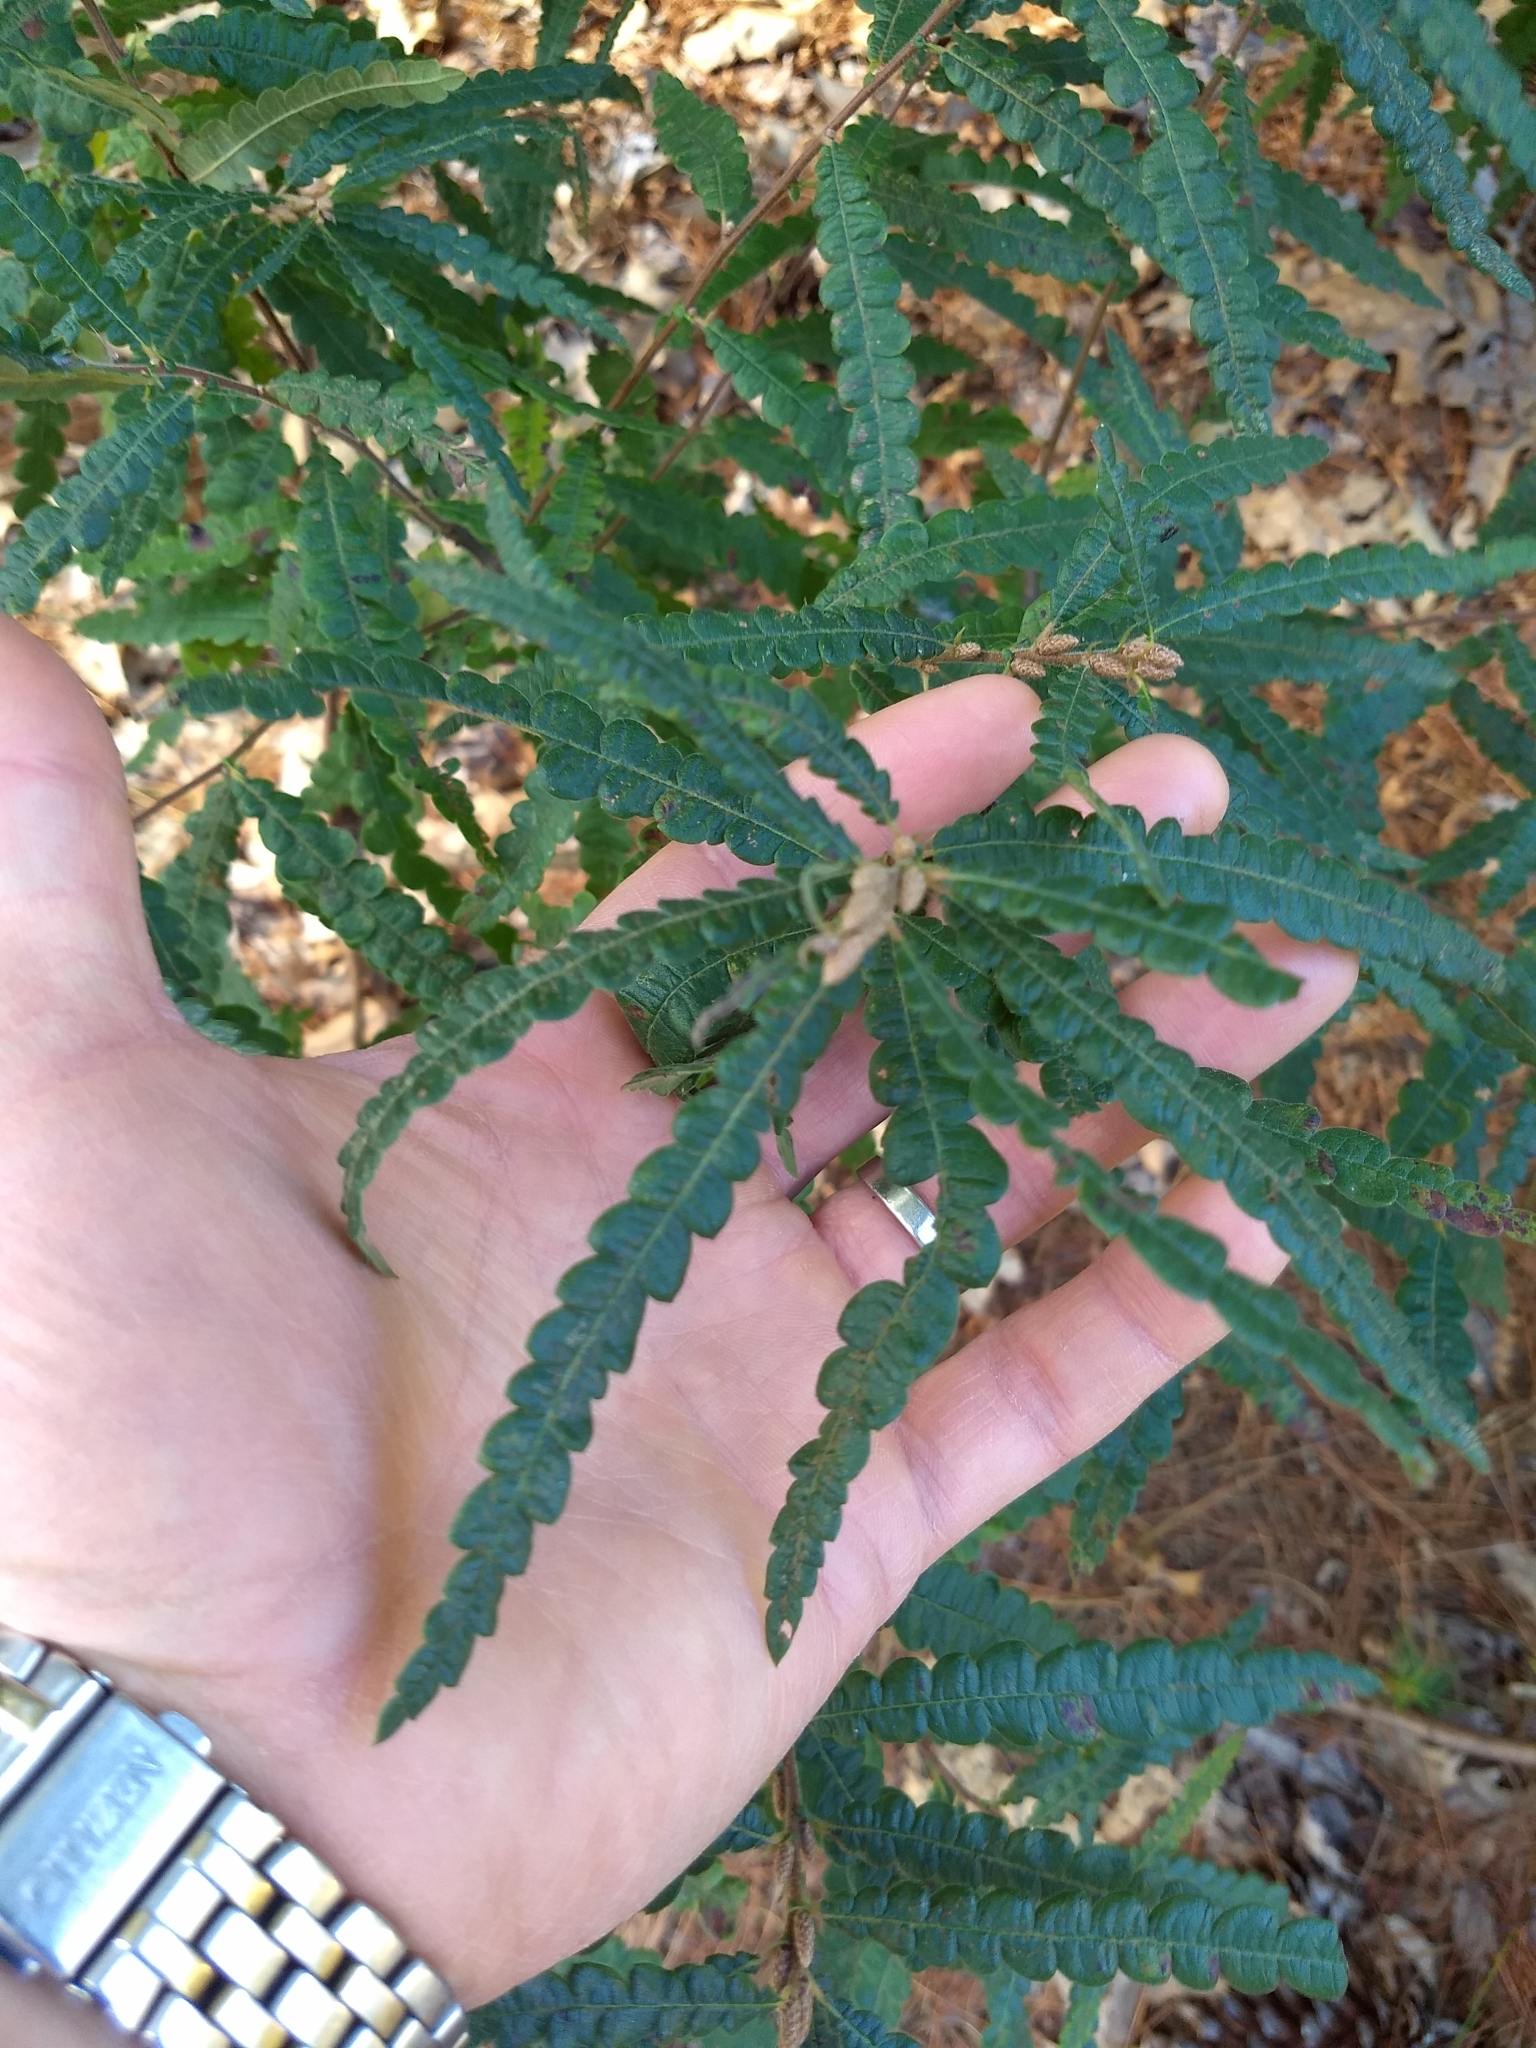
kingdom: Plantae
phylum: Tracheophyta
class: Magnoliopsida
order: Fagales
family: Myricaceae
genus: Comptonia
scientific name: Comptonia peregrina
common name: Sweet-fern
